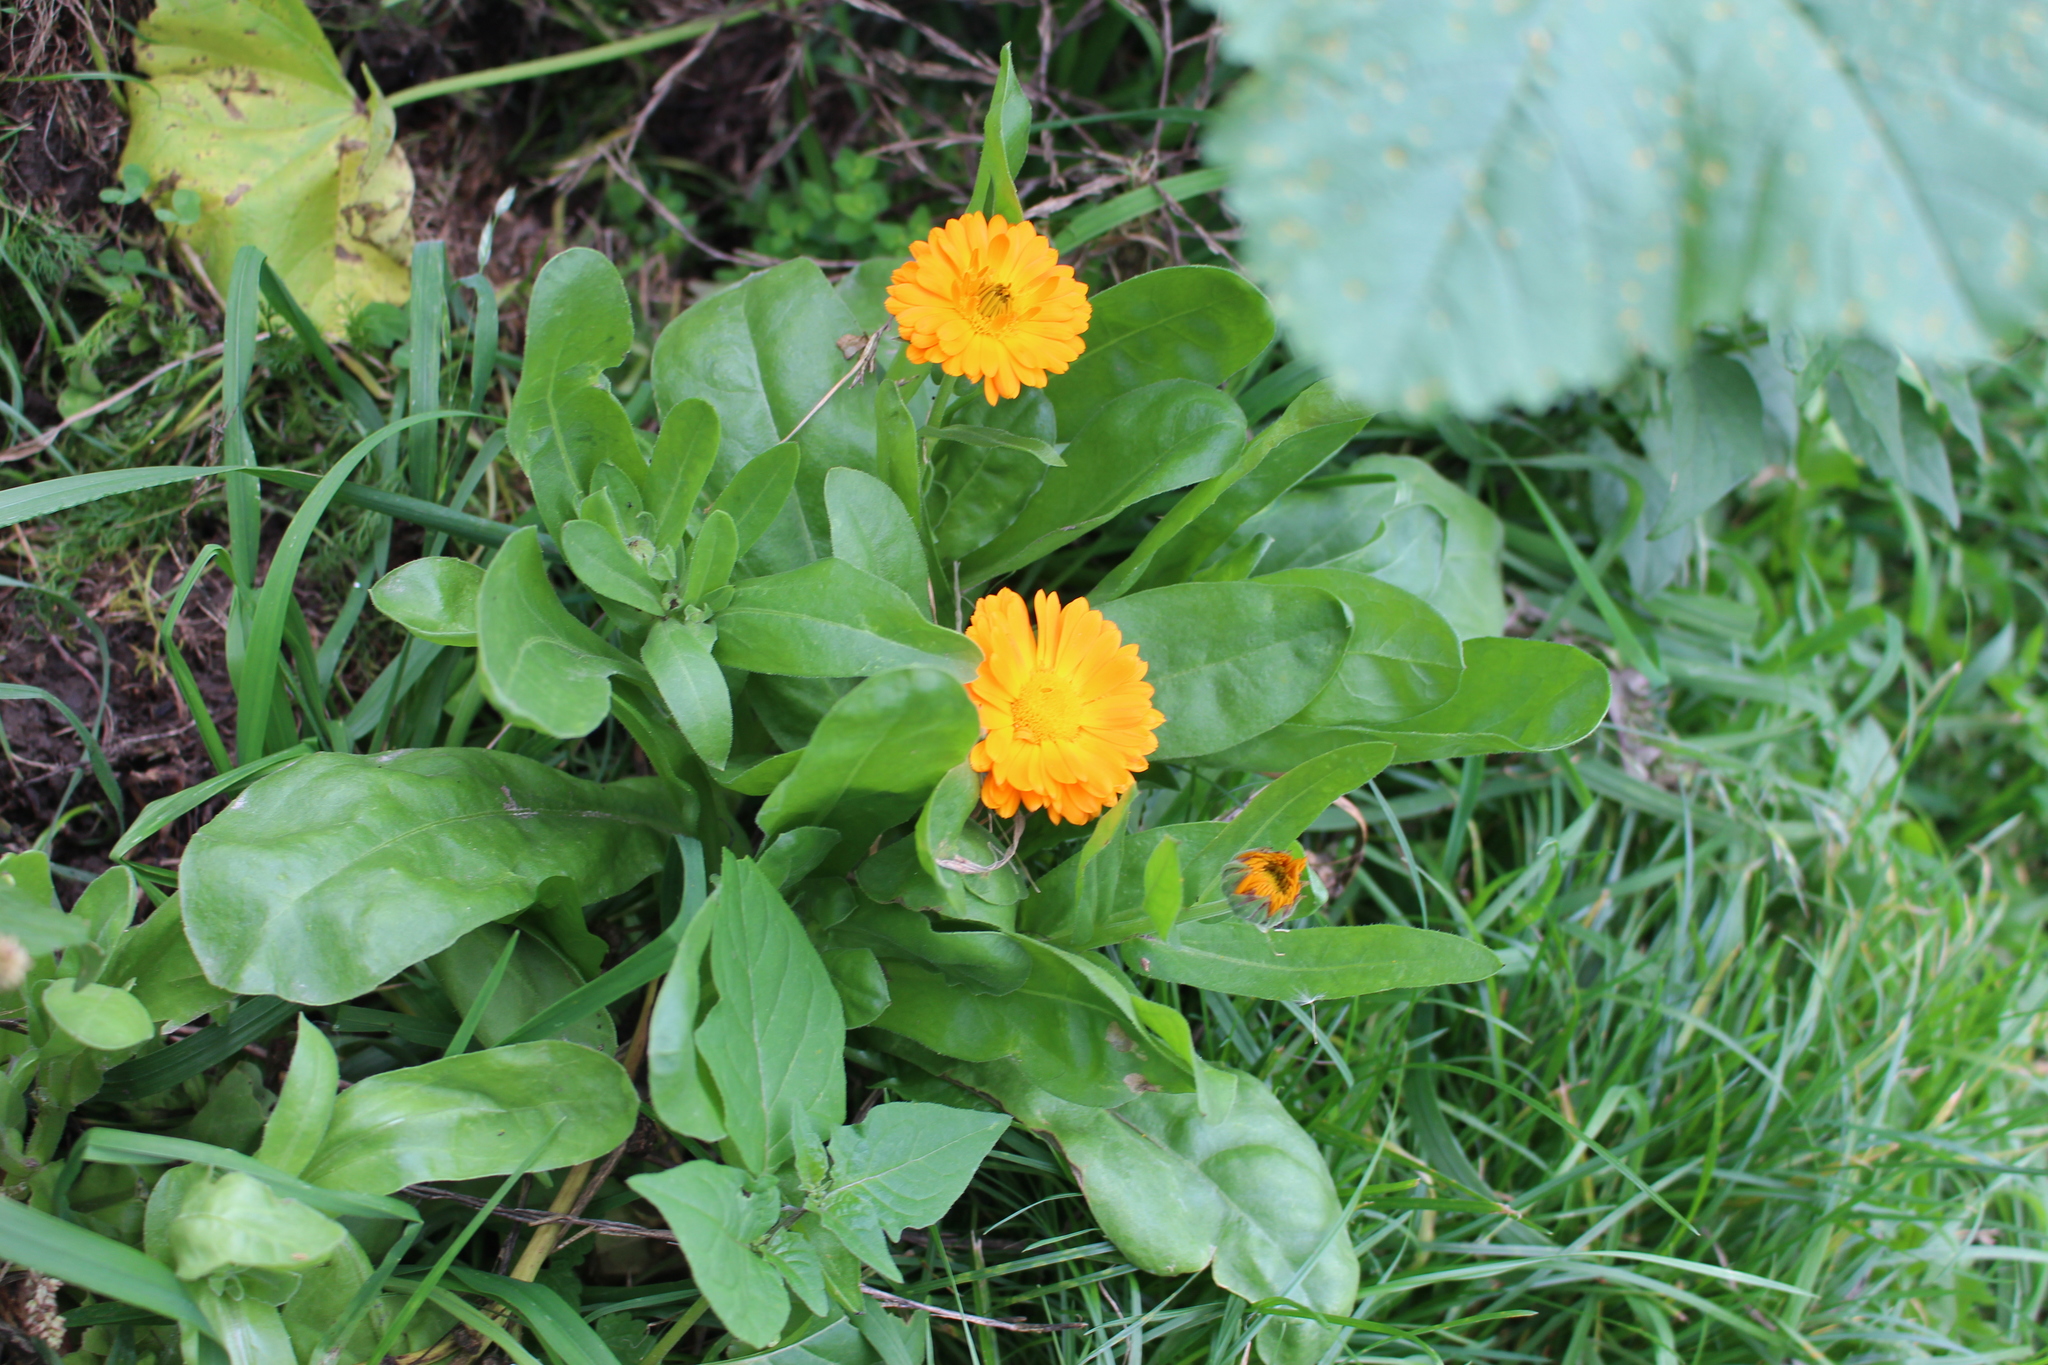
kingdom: Plantae
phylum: Tracheophyta
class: Magnoliopsida
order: Asterales
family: Asteraceae
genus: Calendula
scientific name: Calendula officinalis
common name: Pot marigold
